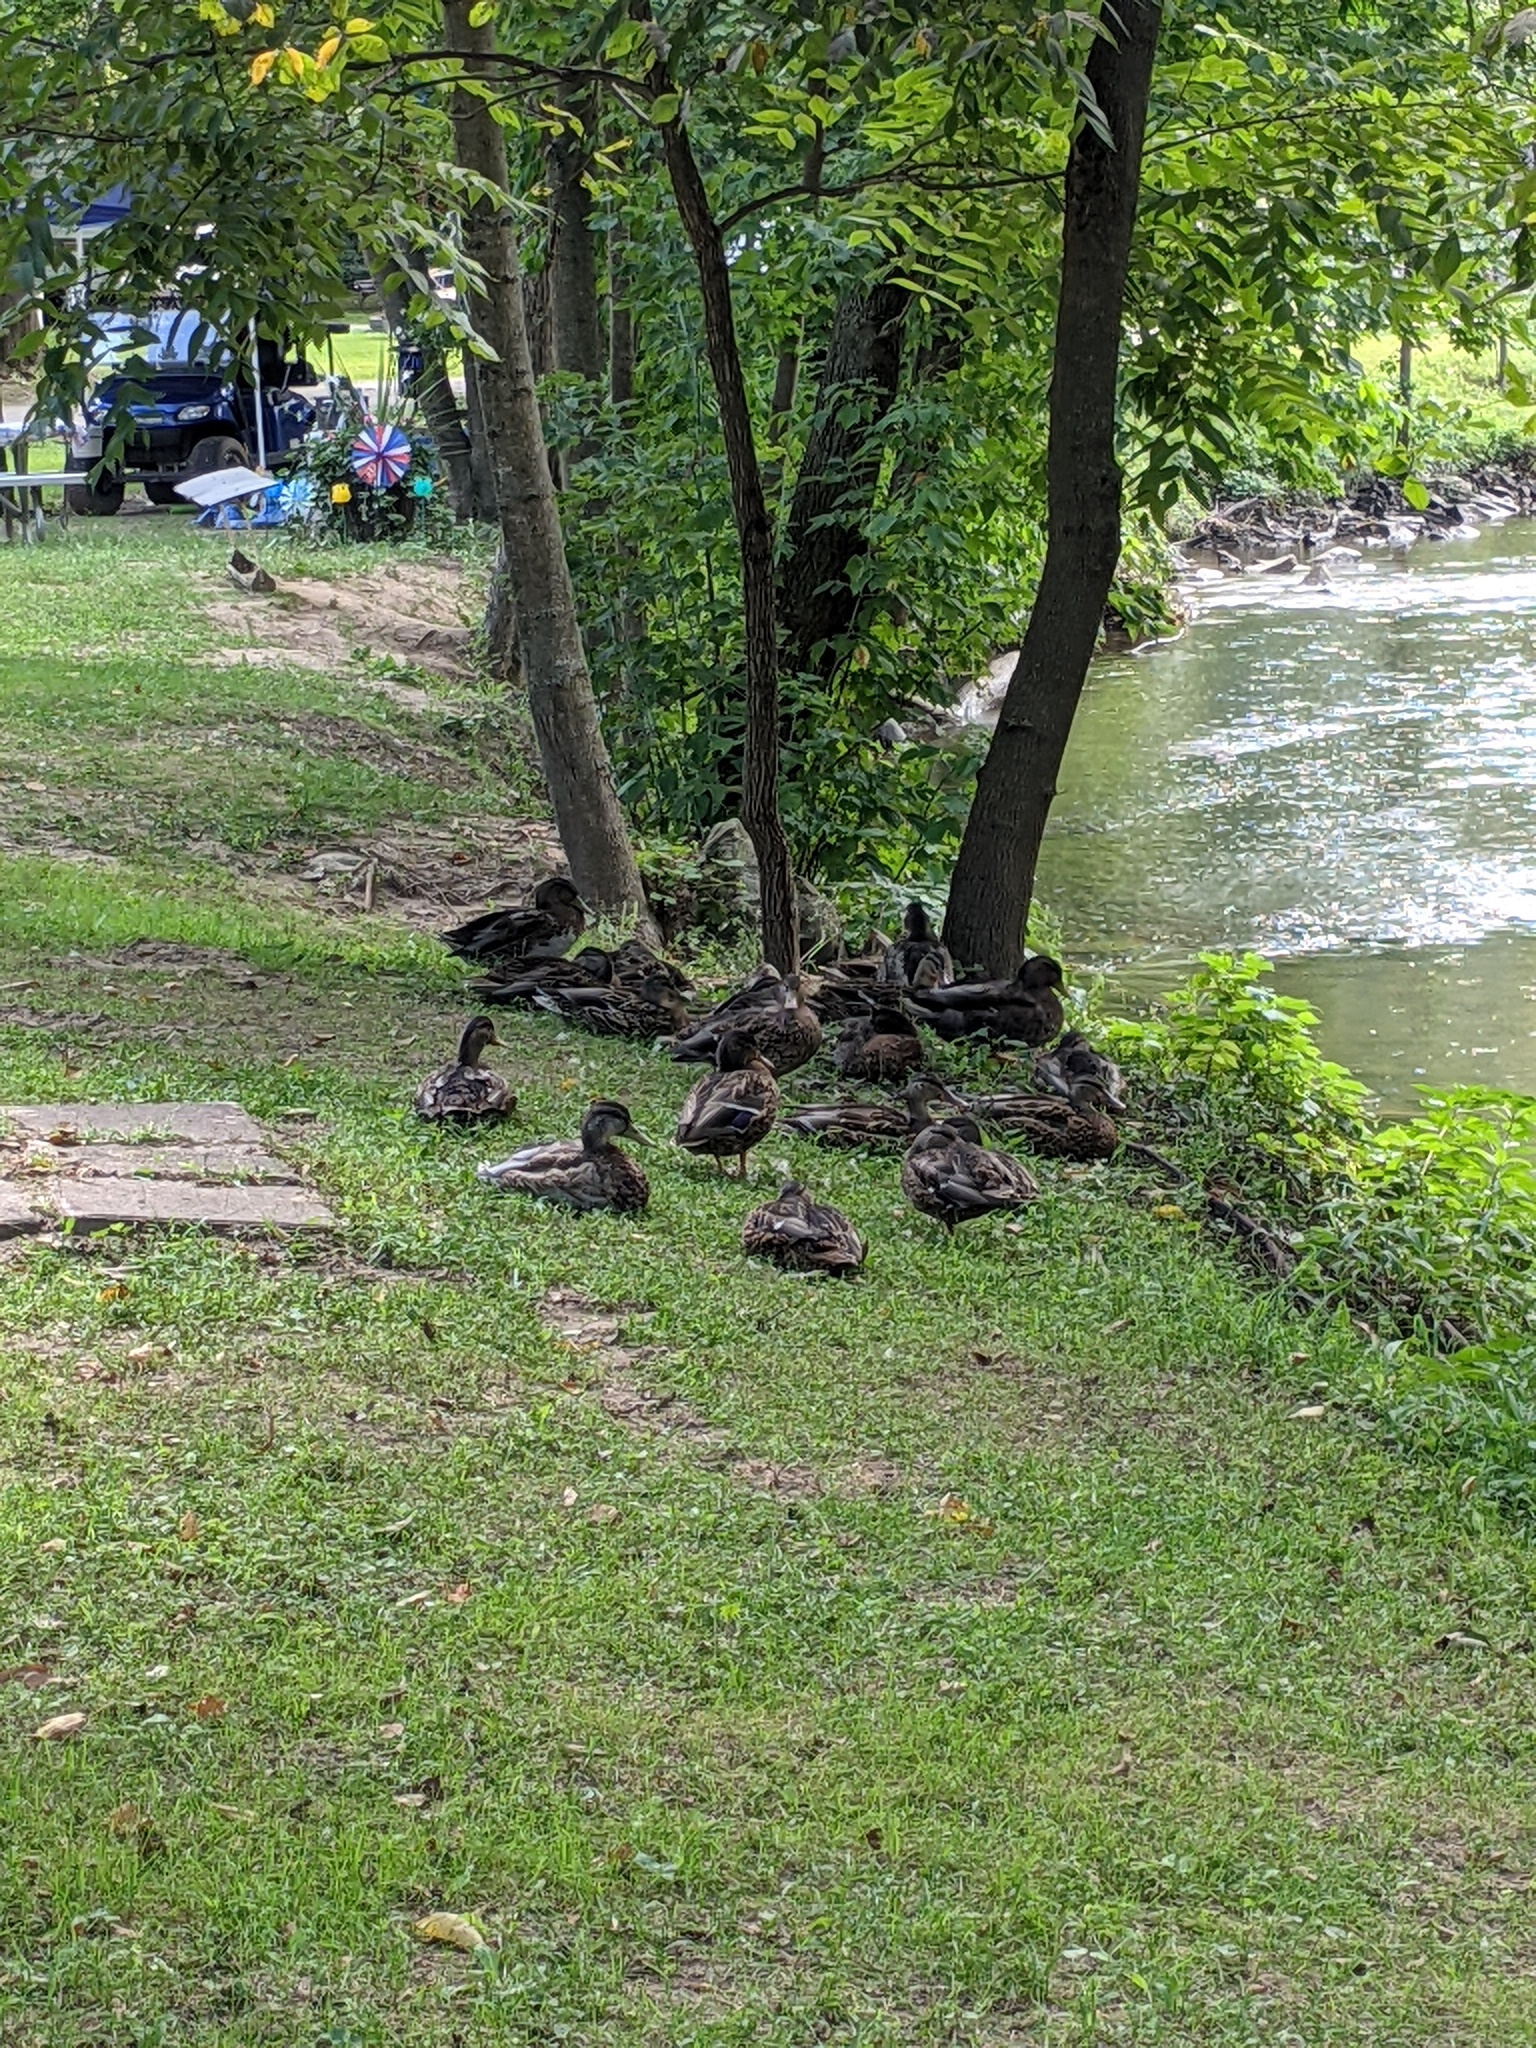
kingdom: Animalia
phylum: Chordata
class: Aves
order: Anseriformes
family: Anatidae
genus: Anas
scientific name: Anas platyrhynchos
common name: Mallard
